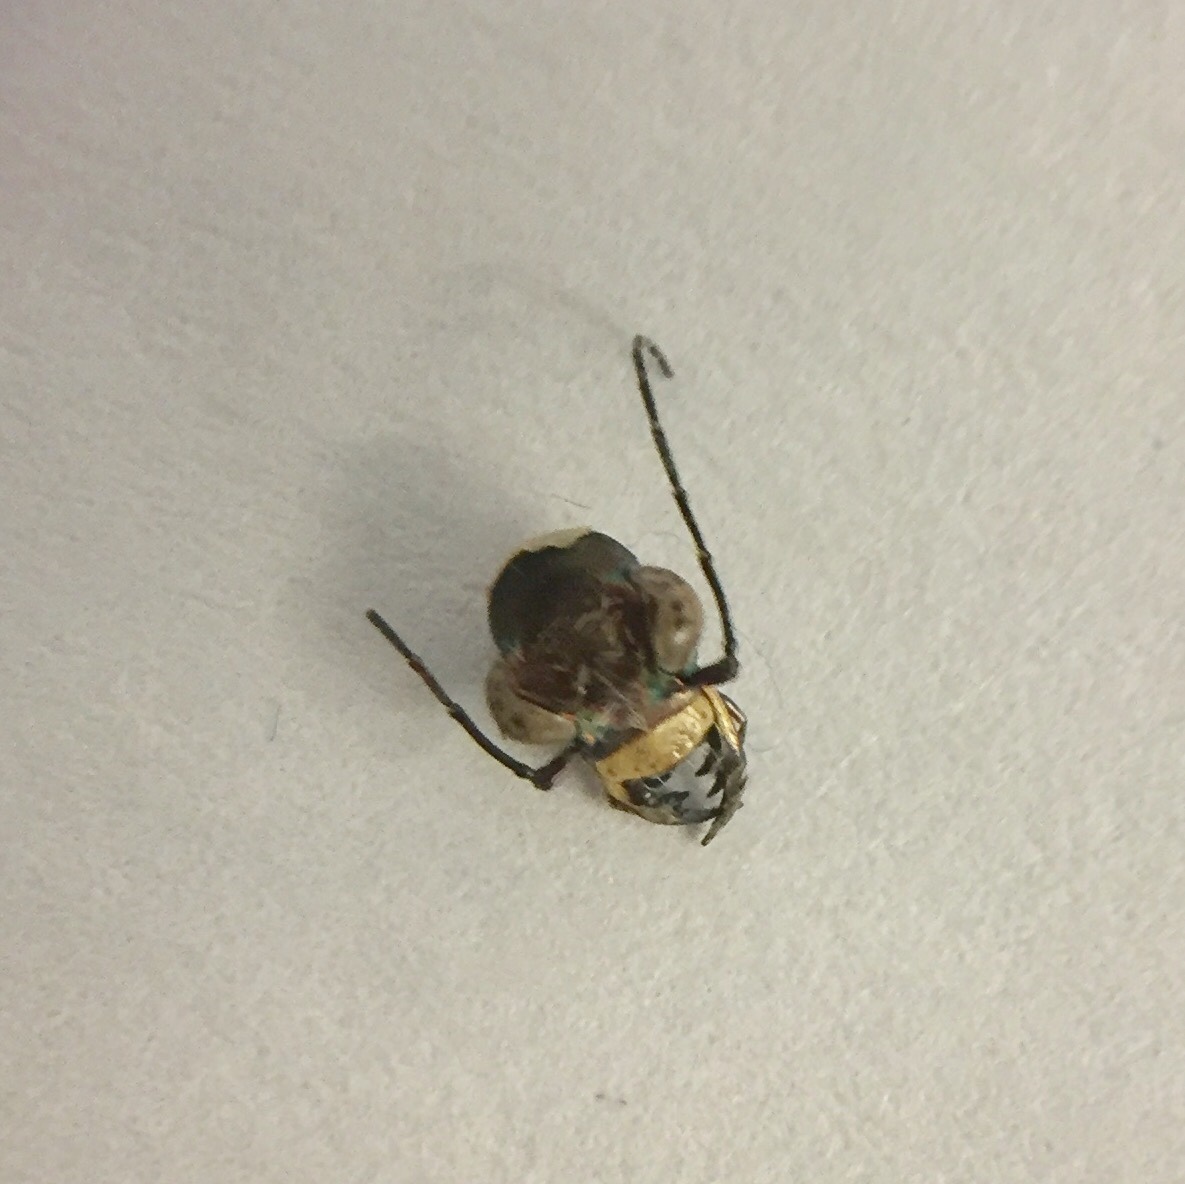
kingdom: Animalia
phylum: Arthropoda
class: Insecta
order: Coleoptera
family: Carabidae
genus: Cicindela
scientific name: Cicindela repanda
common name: Bronzed tiger beetle
